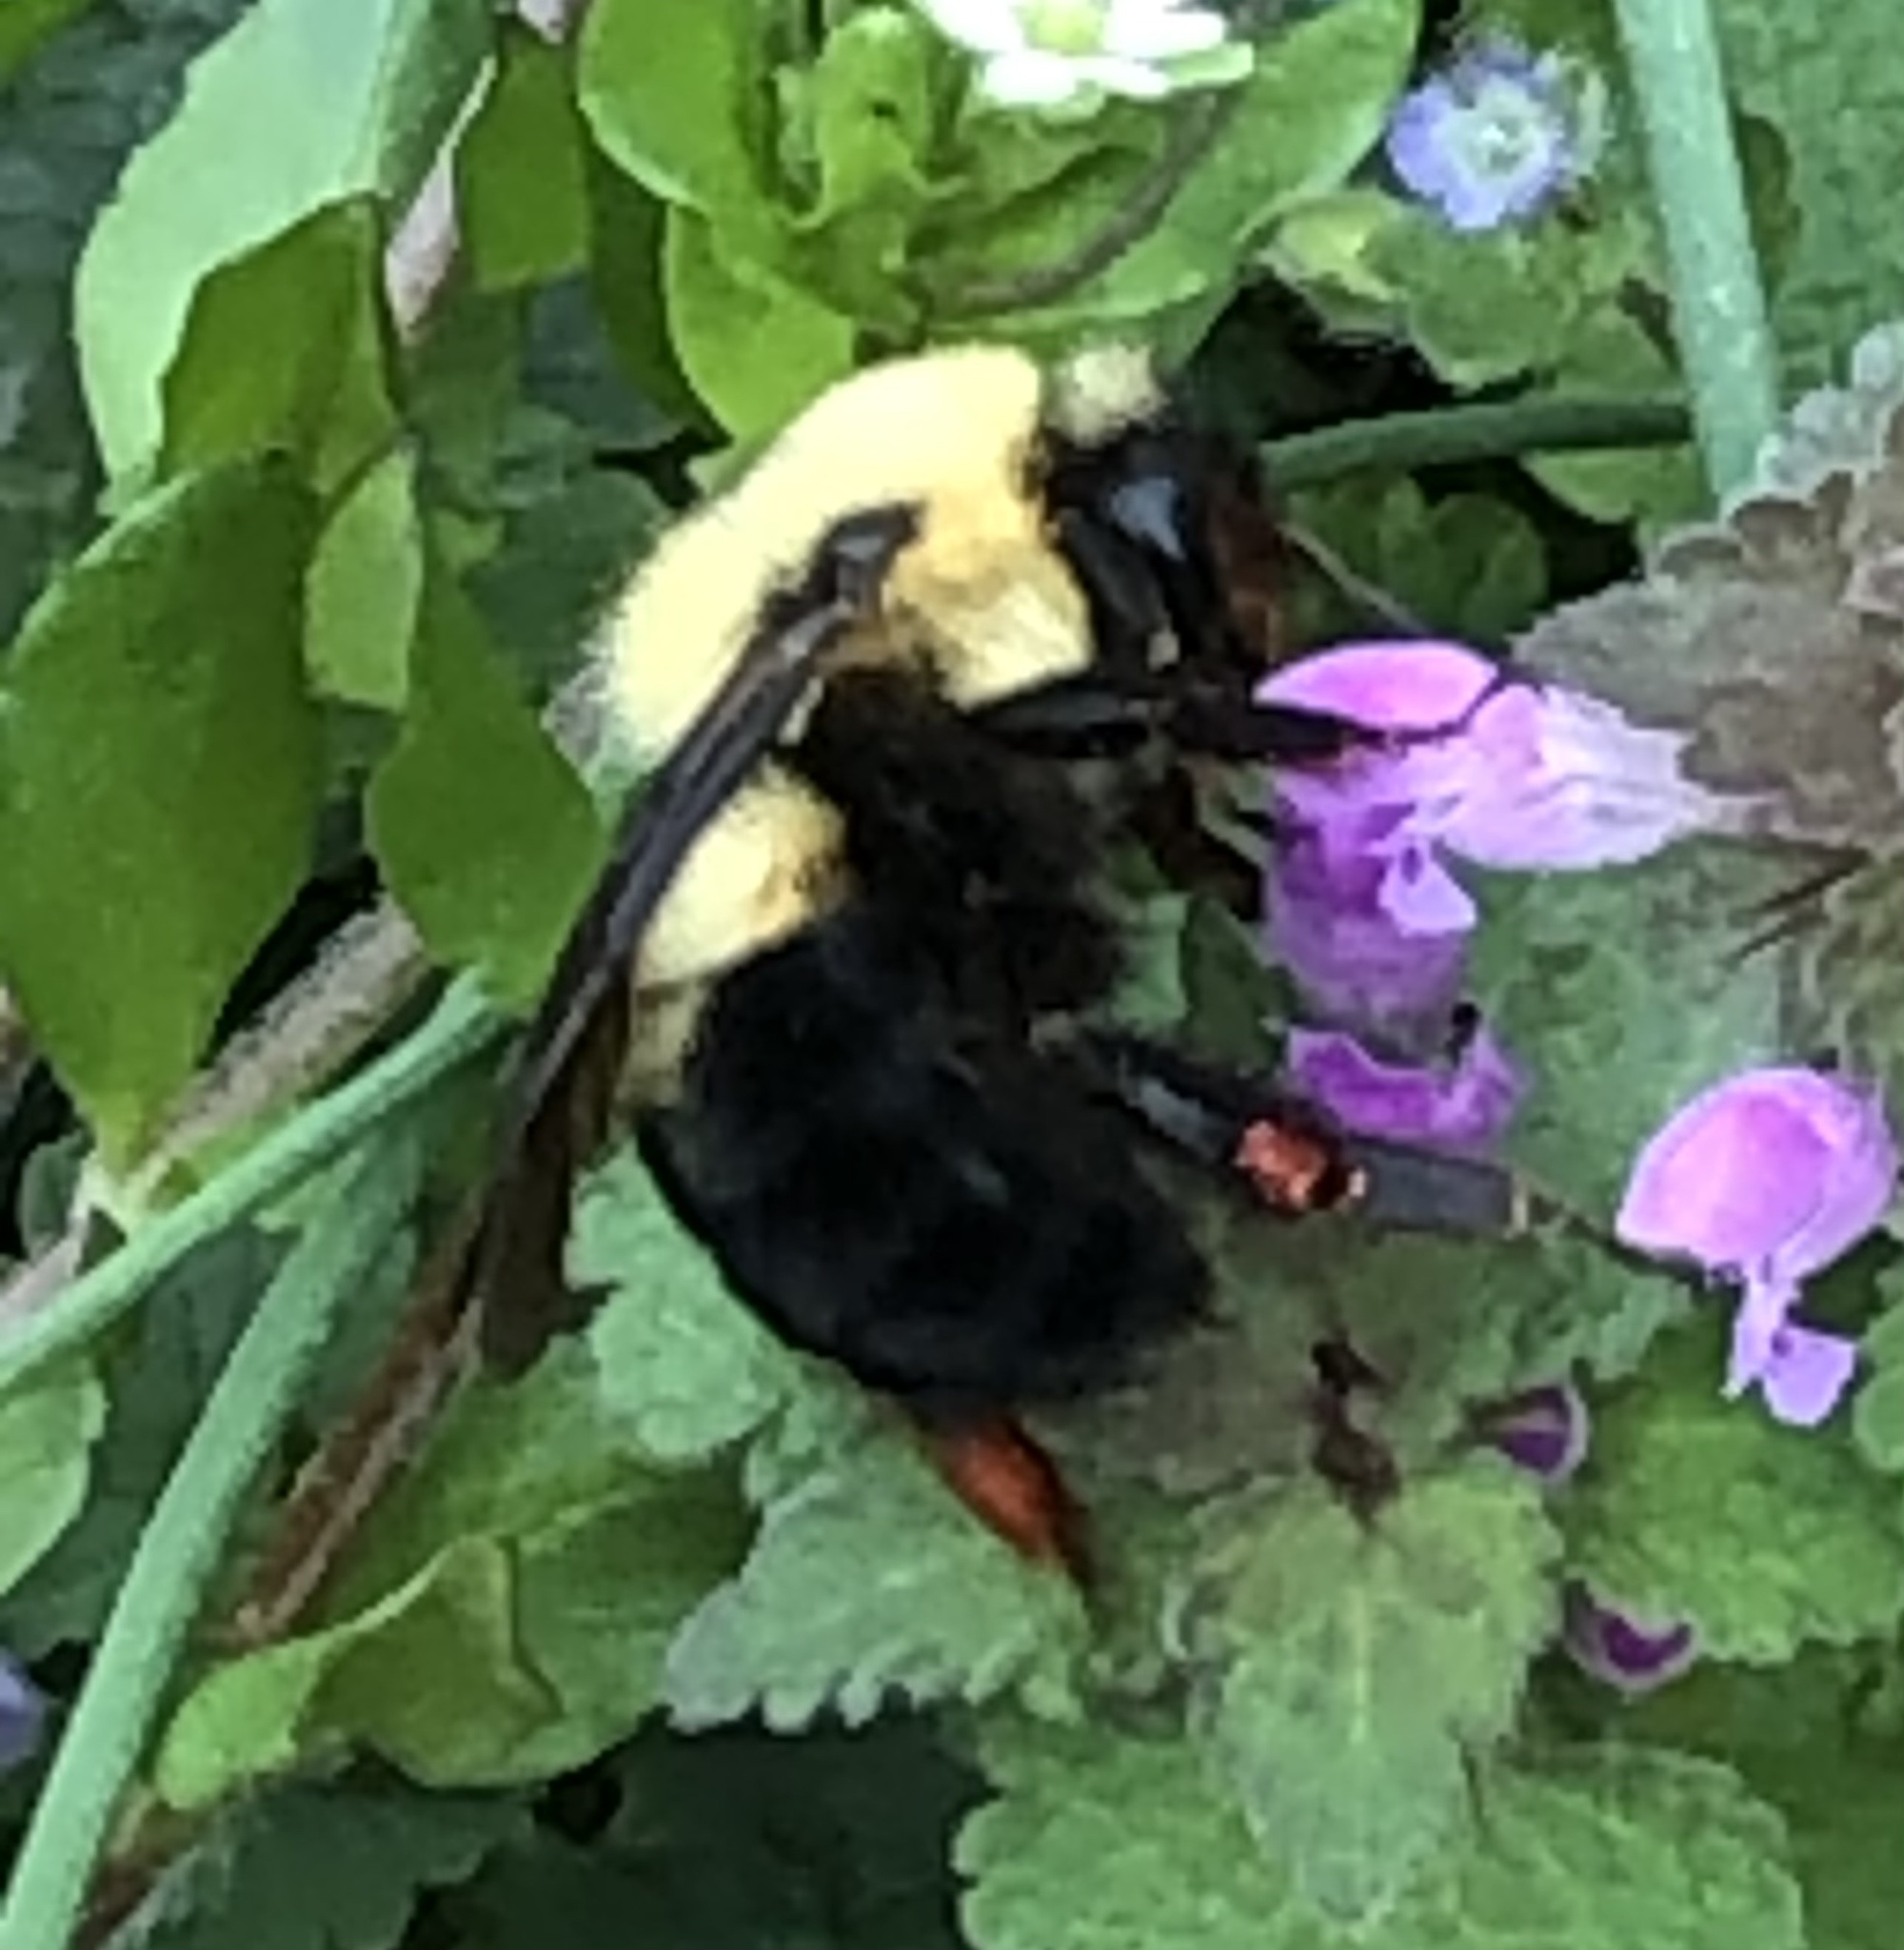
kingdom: Animalia
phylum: Arthropoda
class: Insecta
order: Hymenoptera
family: Apidae
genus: Bombus
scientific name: Bombus bimaculatus
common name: Two-spotted bumble bee
